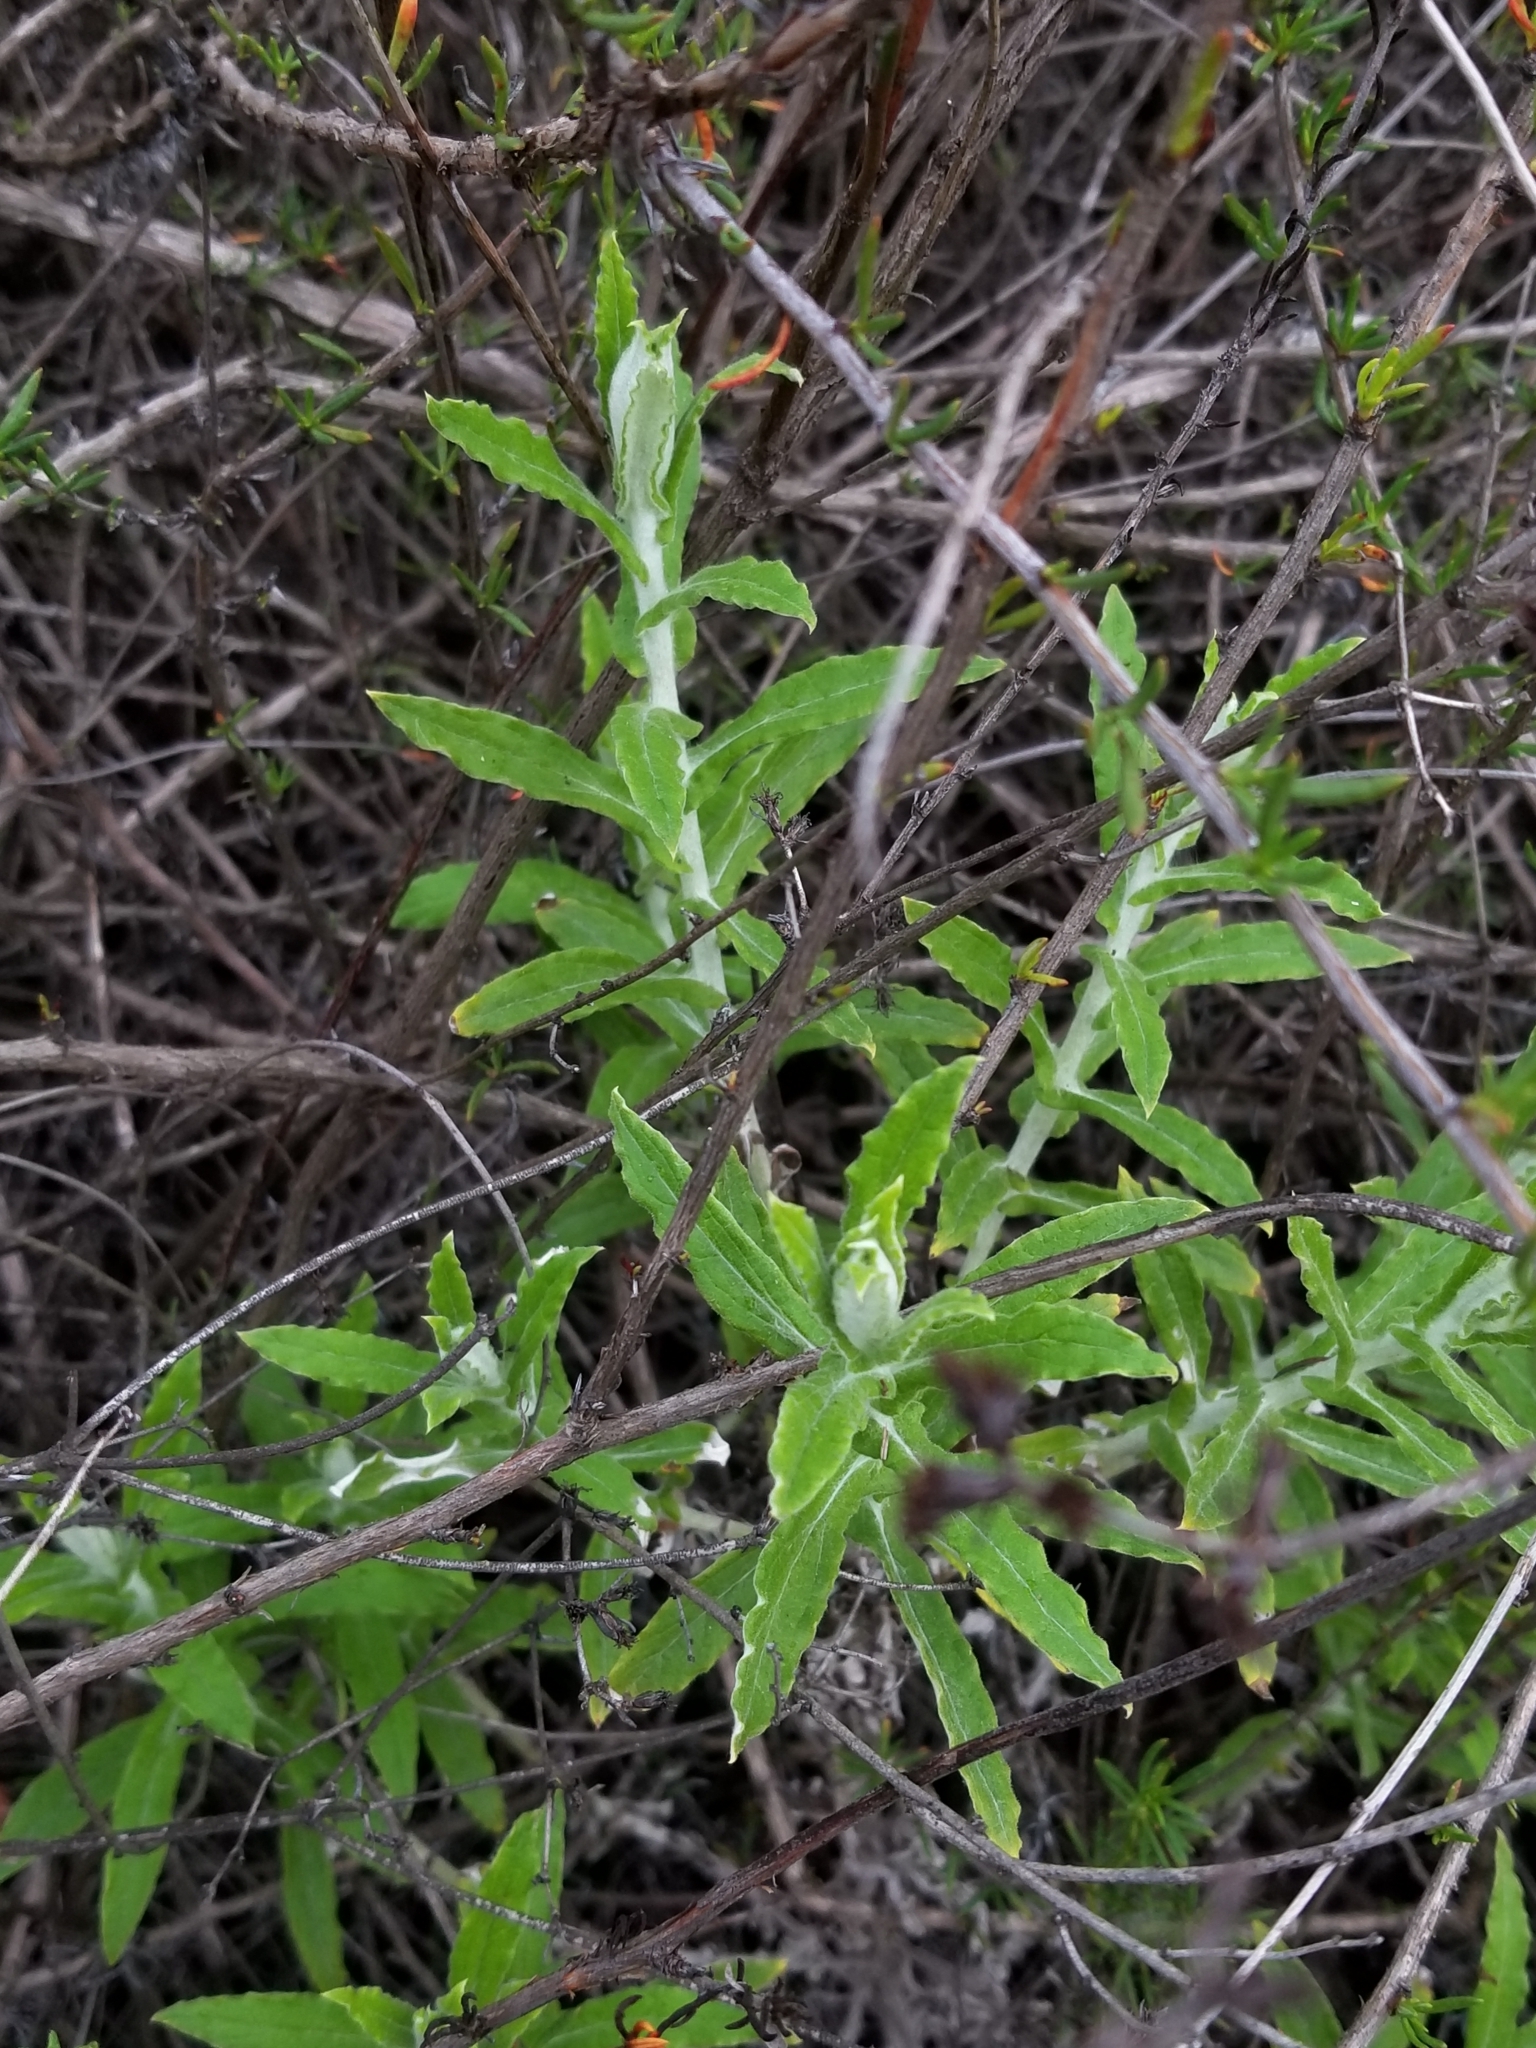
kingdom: Plantae
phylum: Tracheophyta
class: Magnoliopsida
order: Asterales
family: Asteraceae
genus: Pseudognaphalium
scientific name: Pseudognaphalium biolettii
